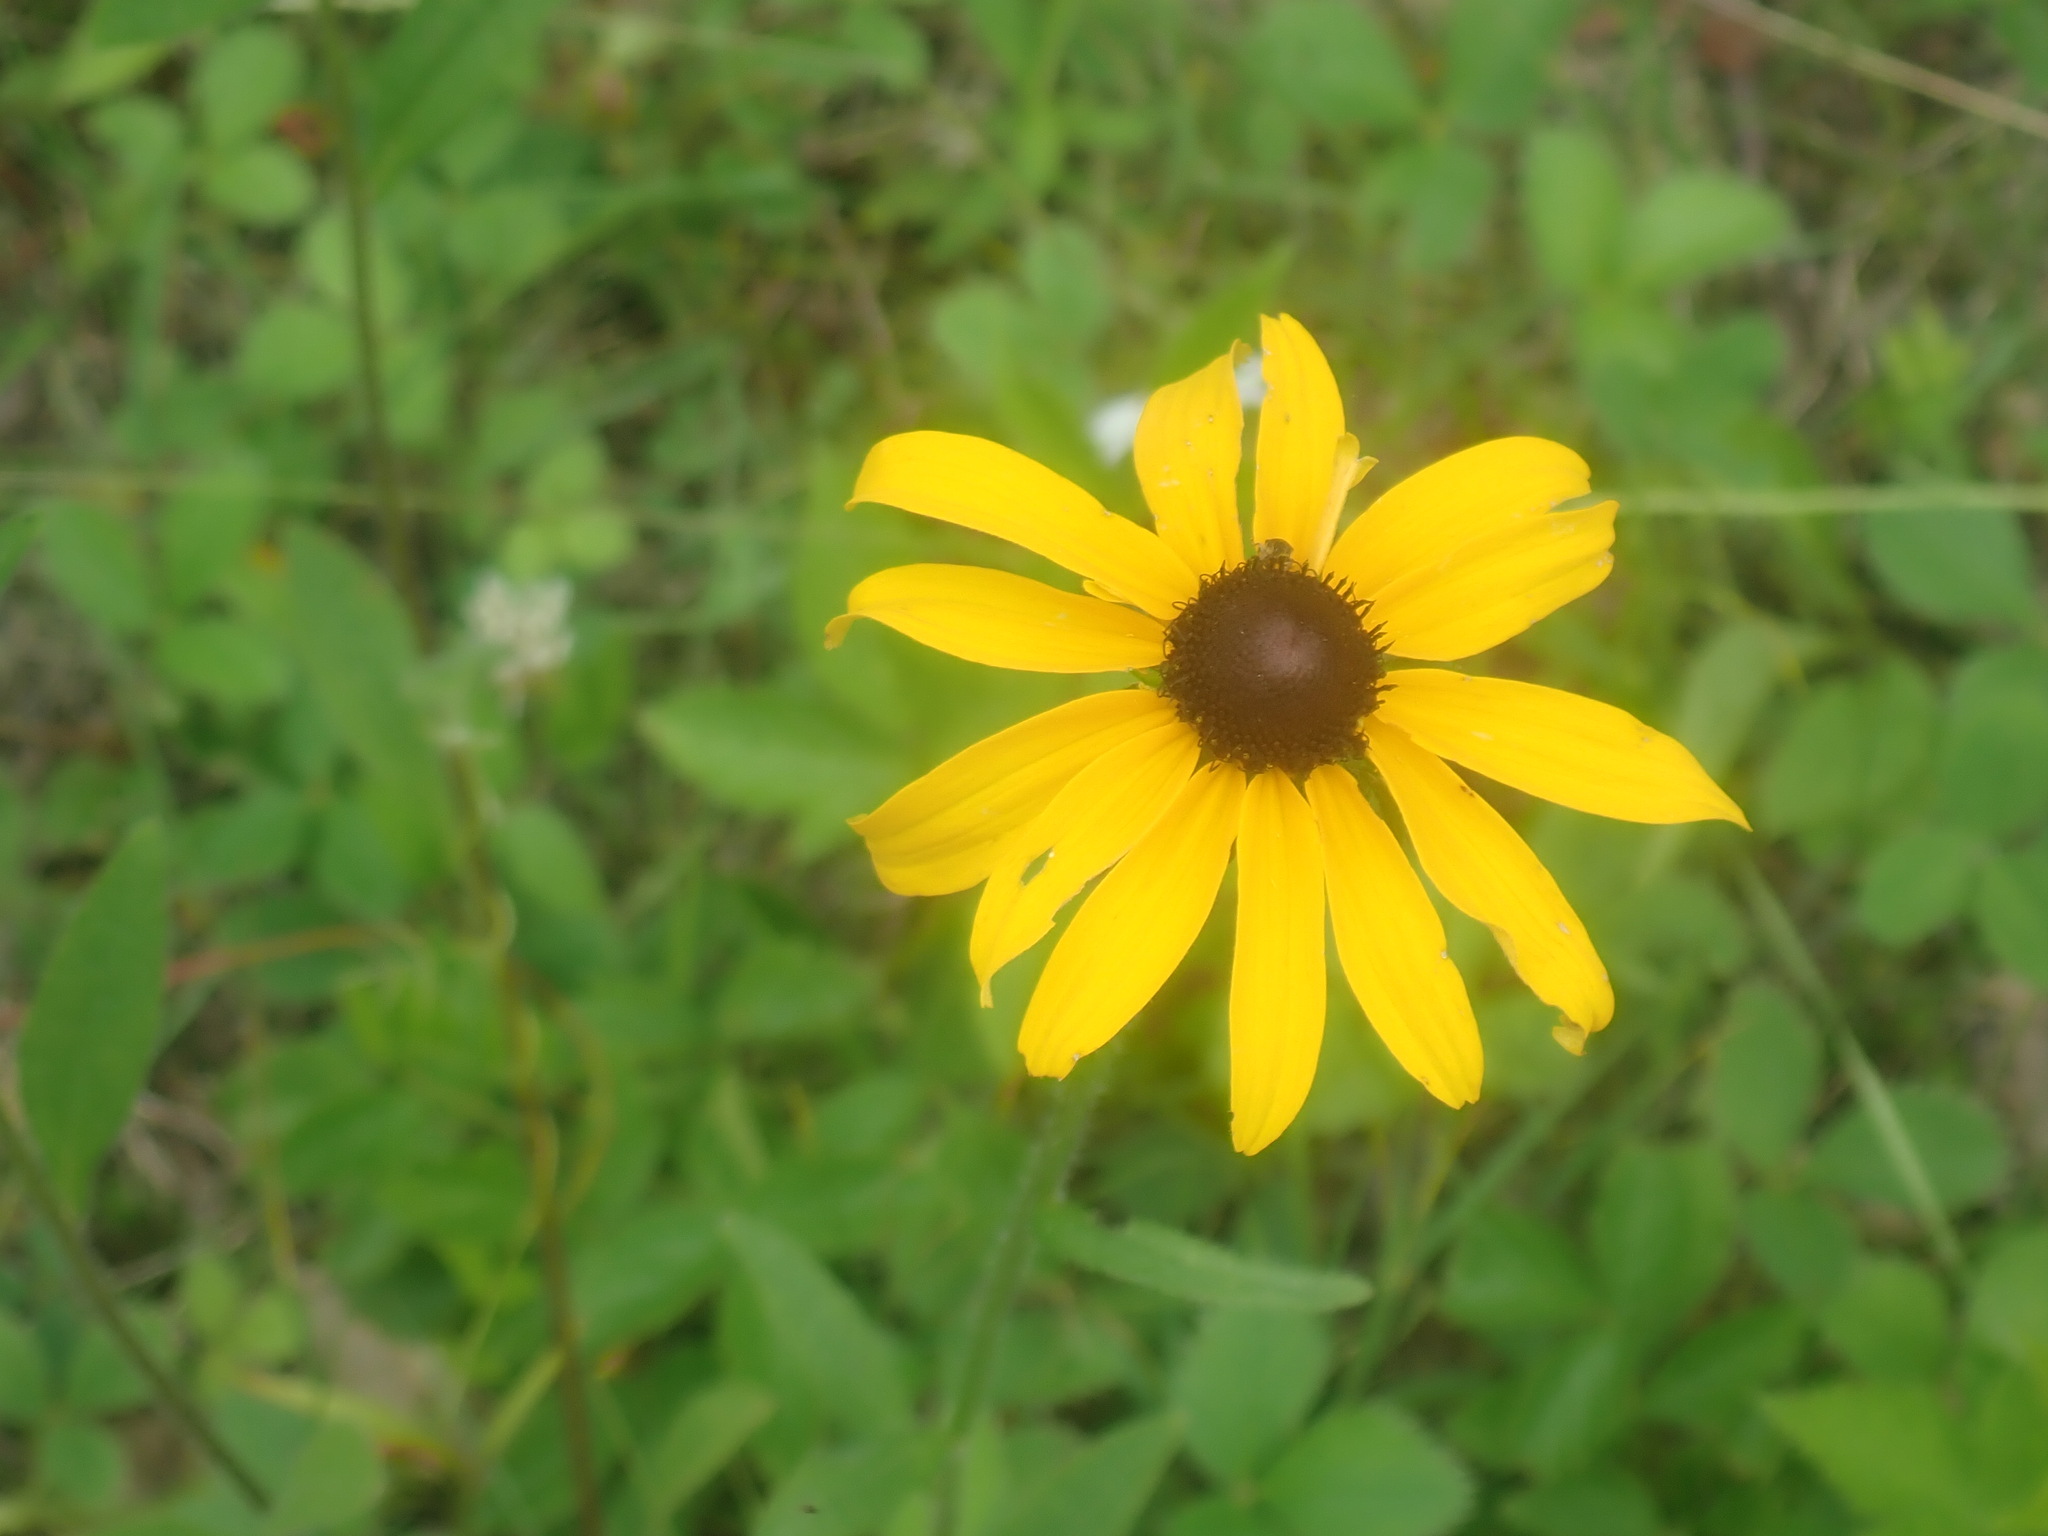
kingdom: Plantae
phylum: Tracheophyta
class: Magnoliopsida
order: Asterales
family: Asteraceae
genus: Rudbeckia
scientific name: Rudbeckia hirta
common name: Black-eyed-susan
